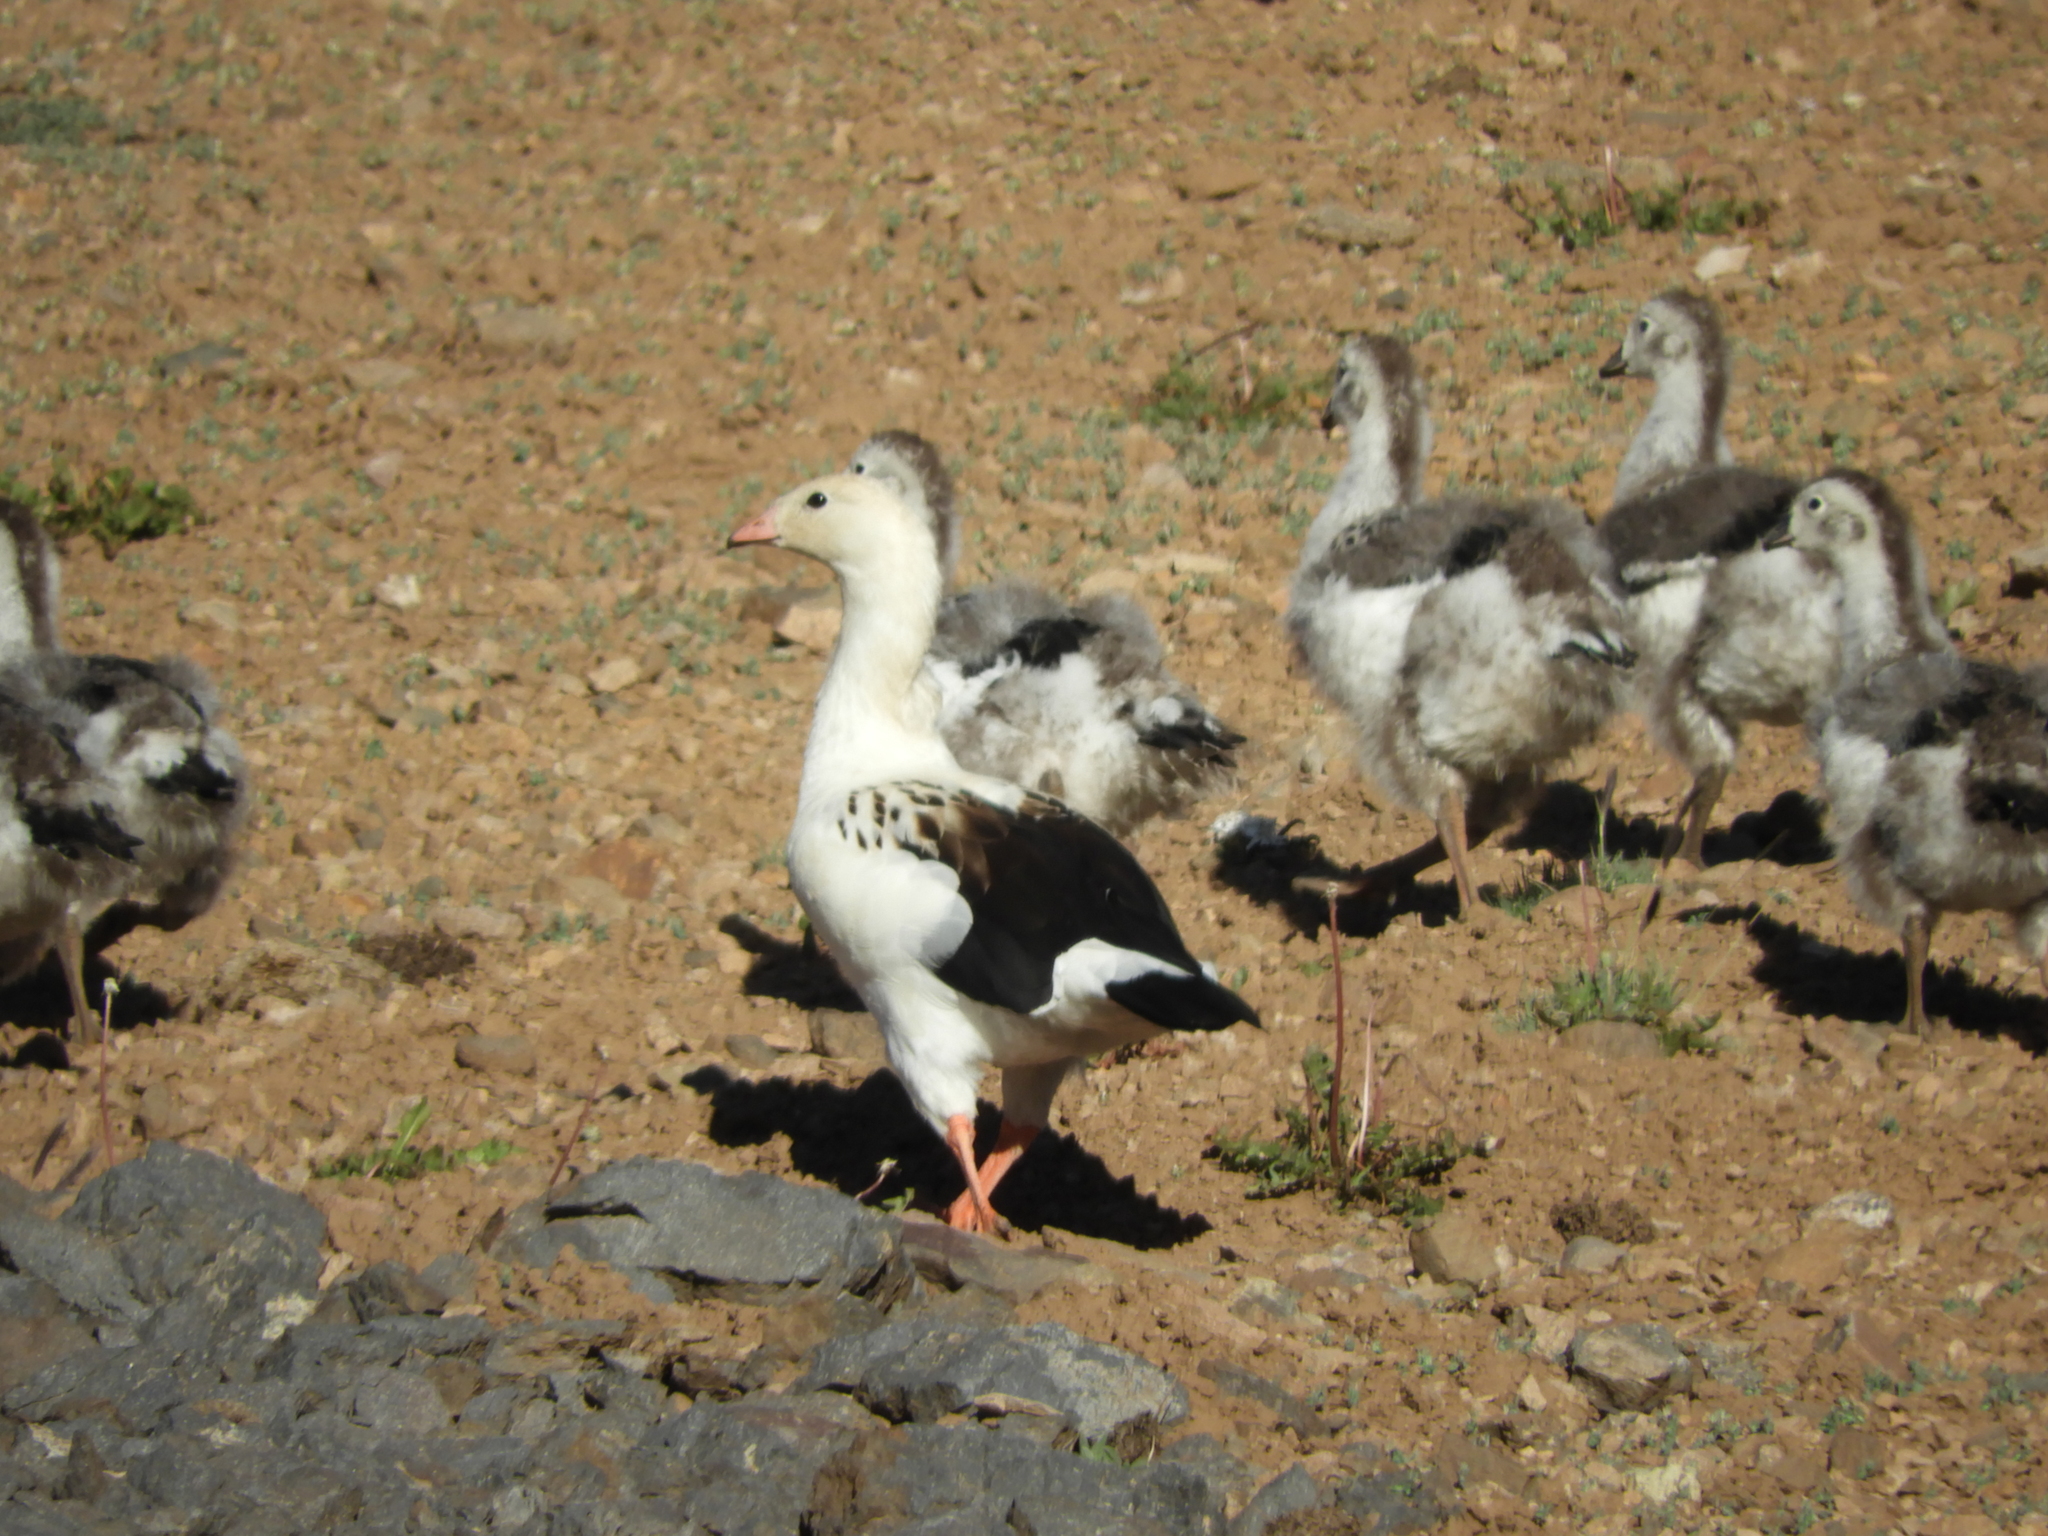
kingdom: Animalia
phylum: Chordata
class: Aves
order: Anseriformes
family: Anatidae
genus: Chloephaga
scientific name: Chloephaga melanoptera
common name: Andean goose
